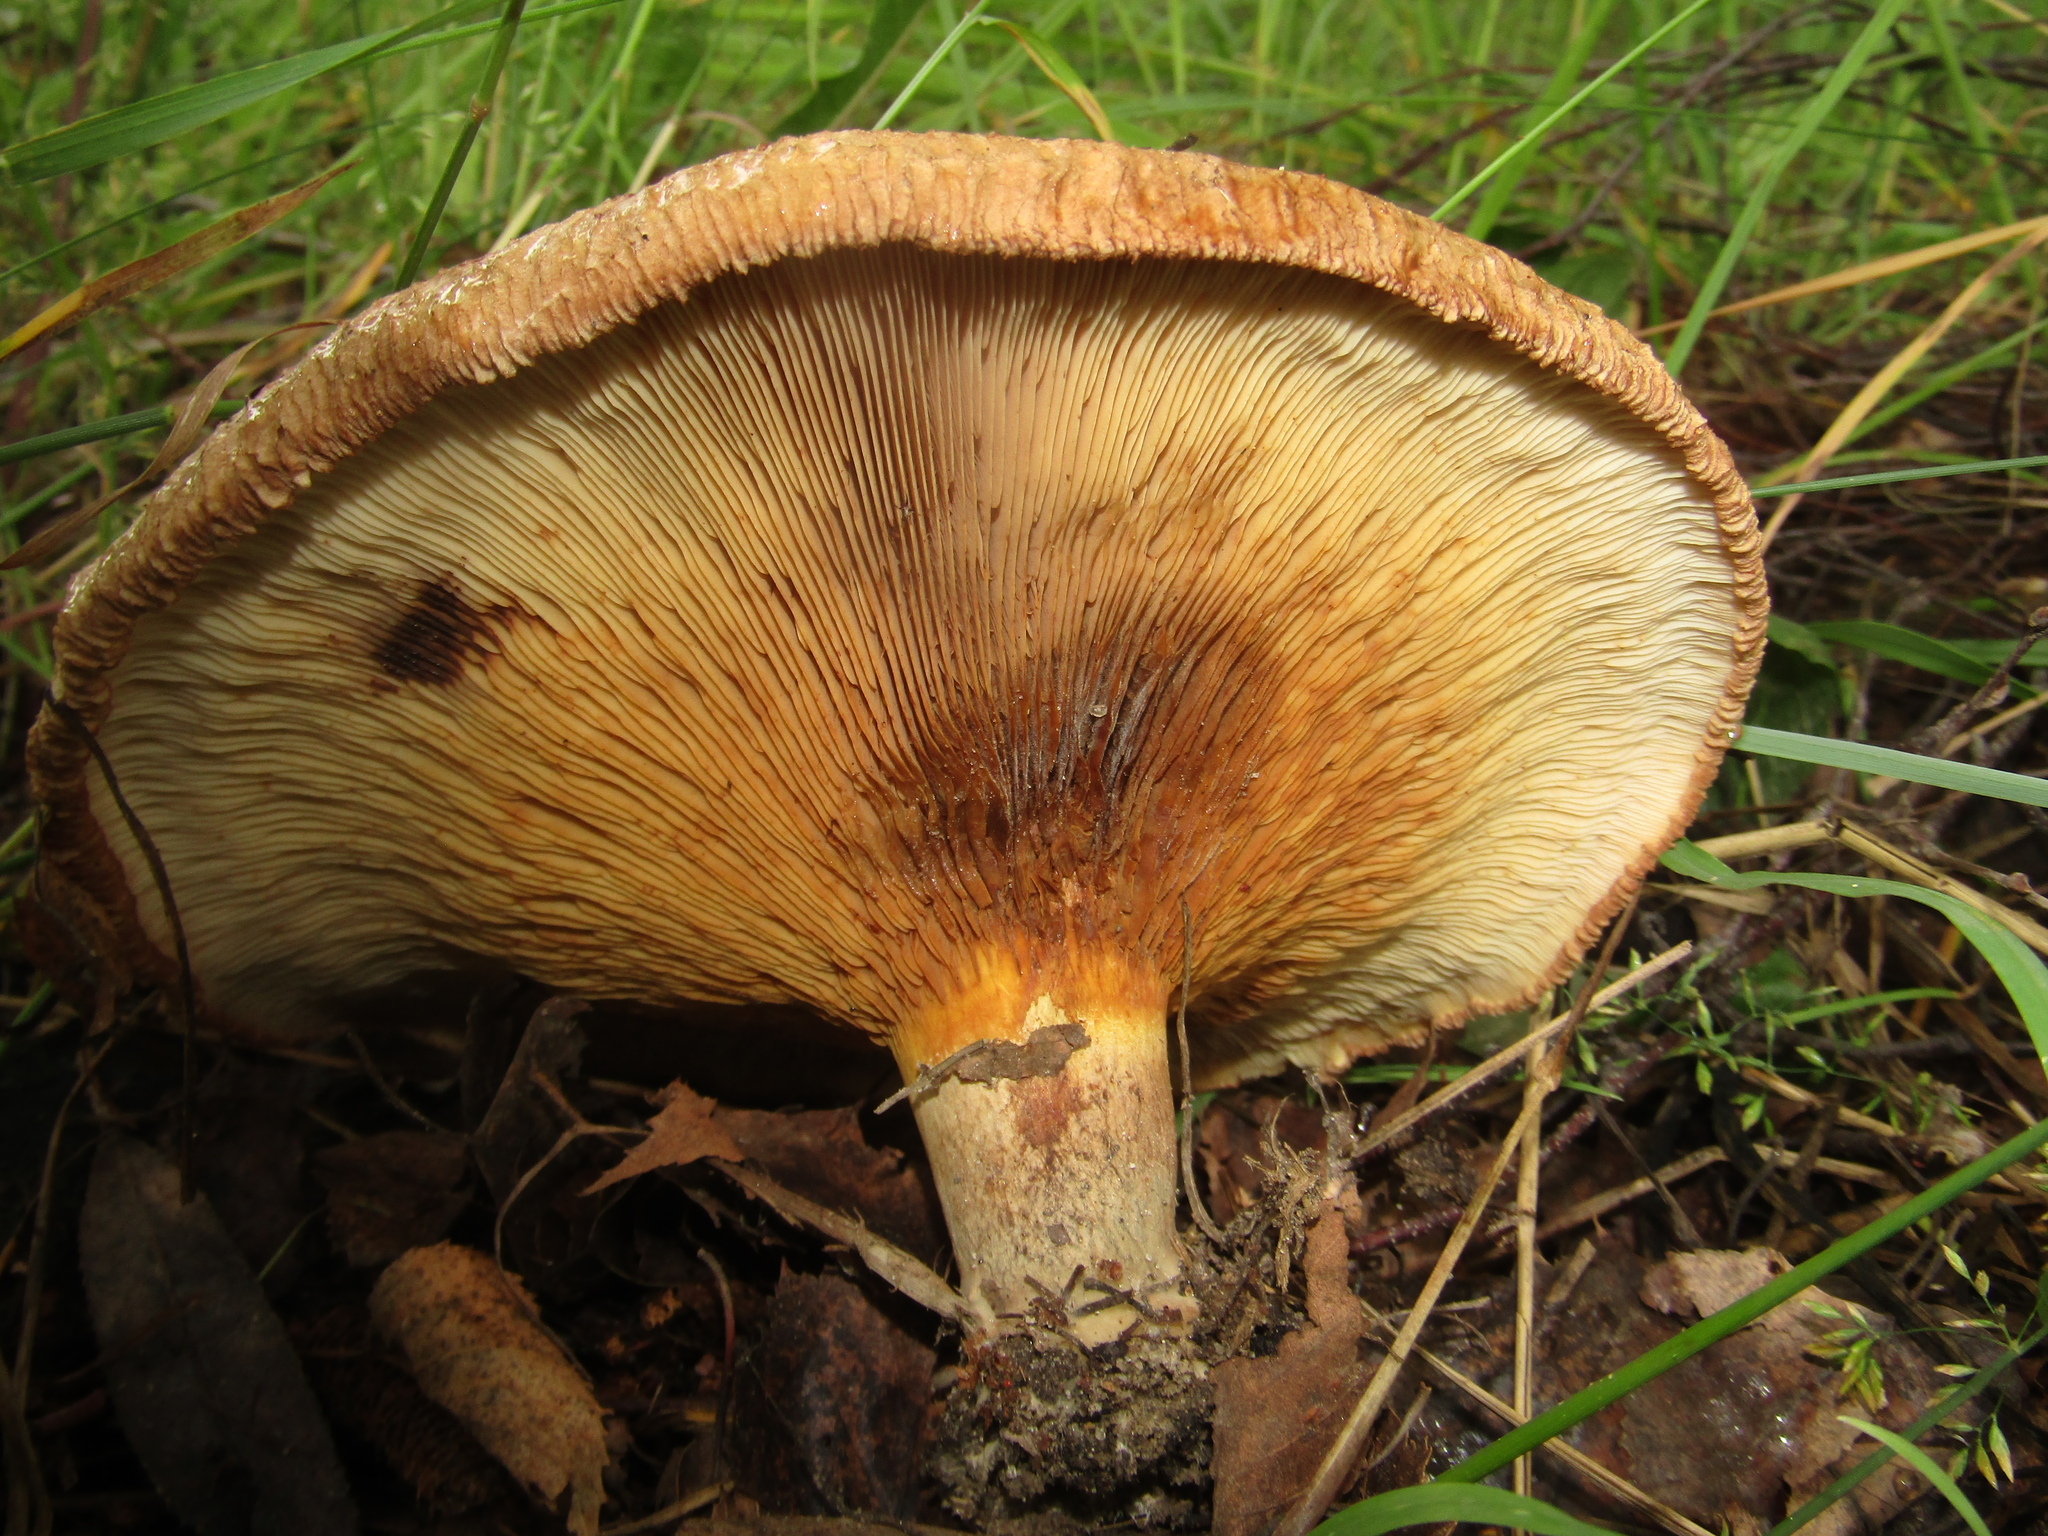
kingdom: Fungi
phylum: Basidiomycota
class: Agaricomycetes
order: Boletales
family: Paxillaceae
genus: Paxillus
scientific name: Paxillus involutus
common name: Brown roll rim
